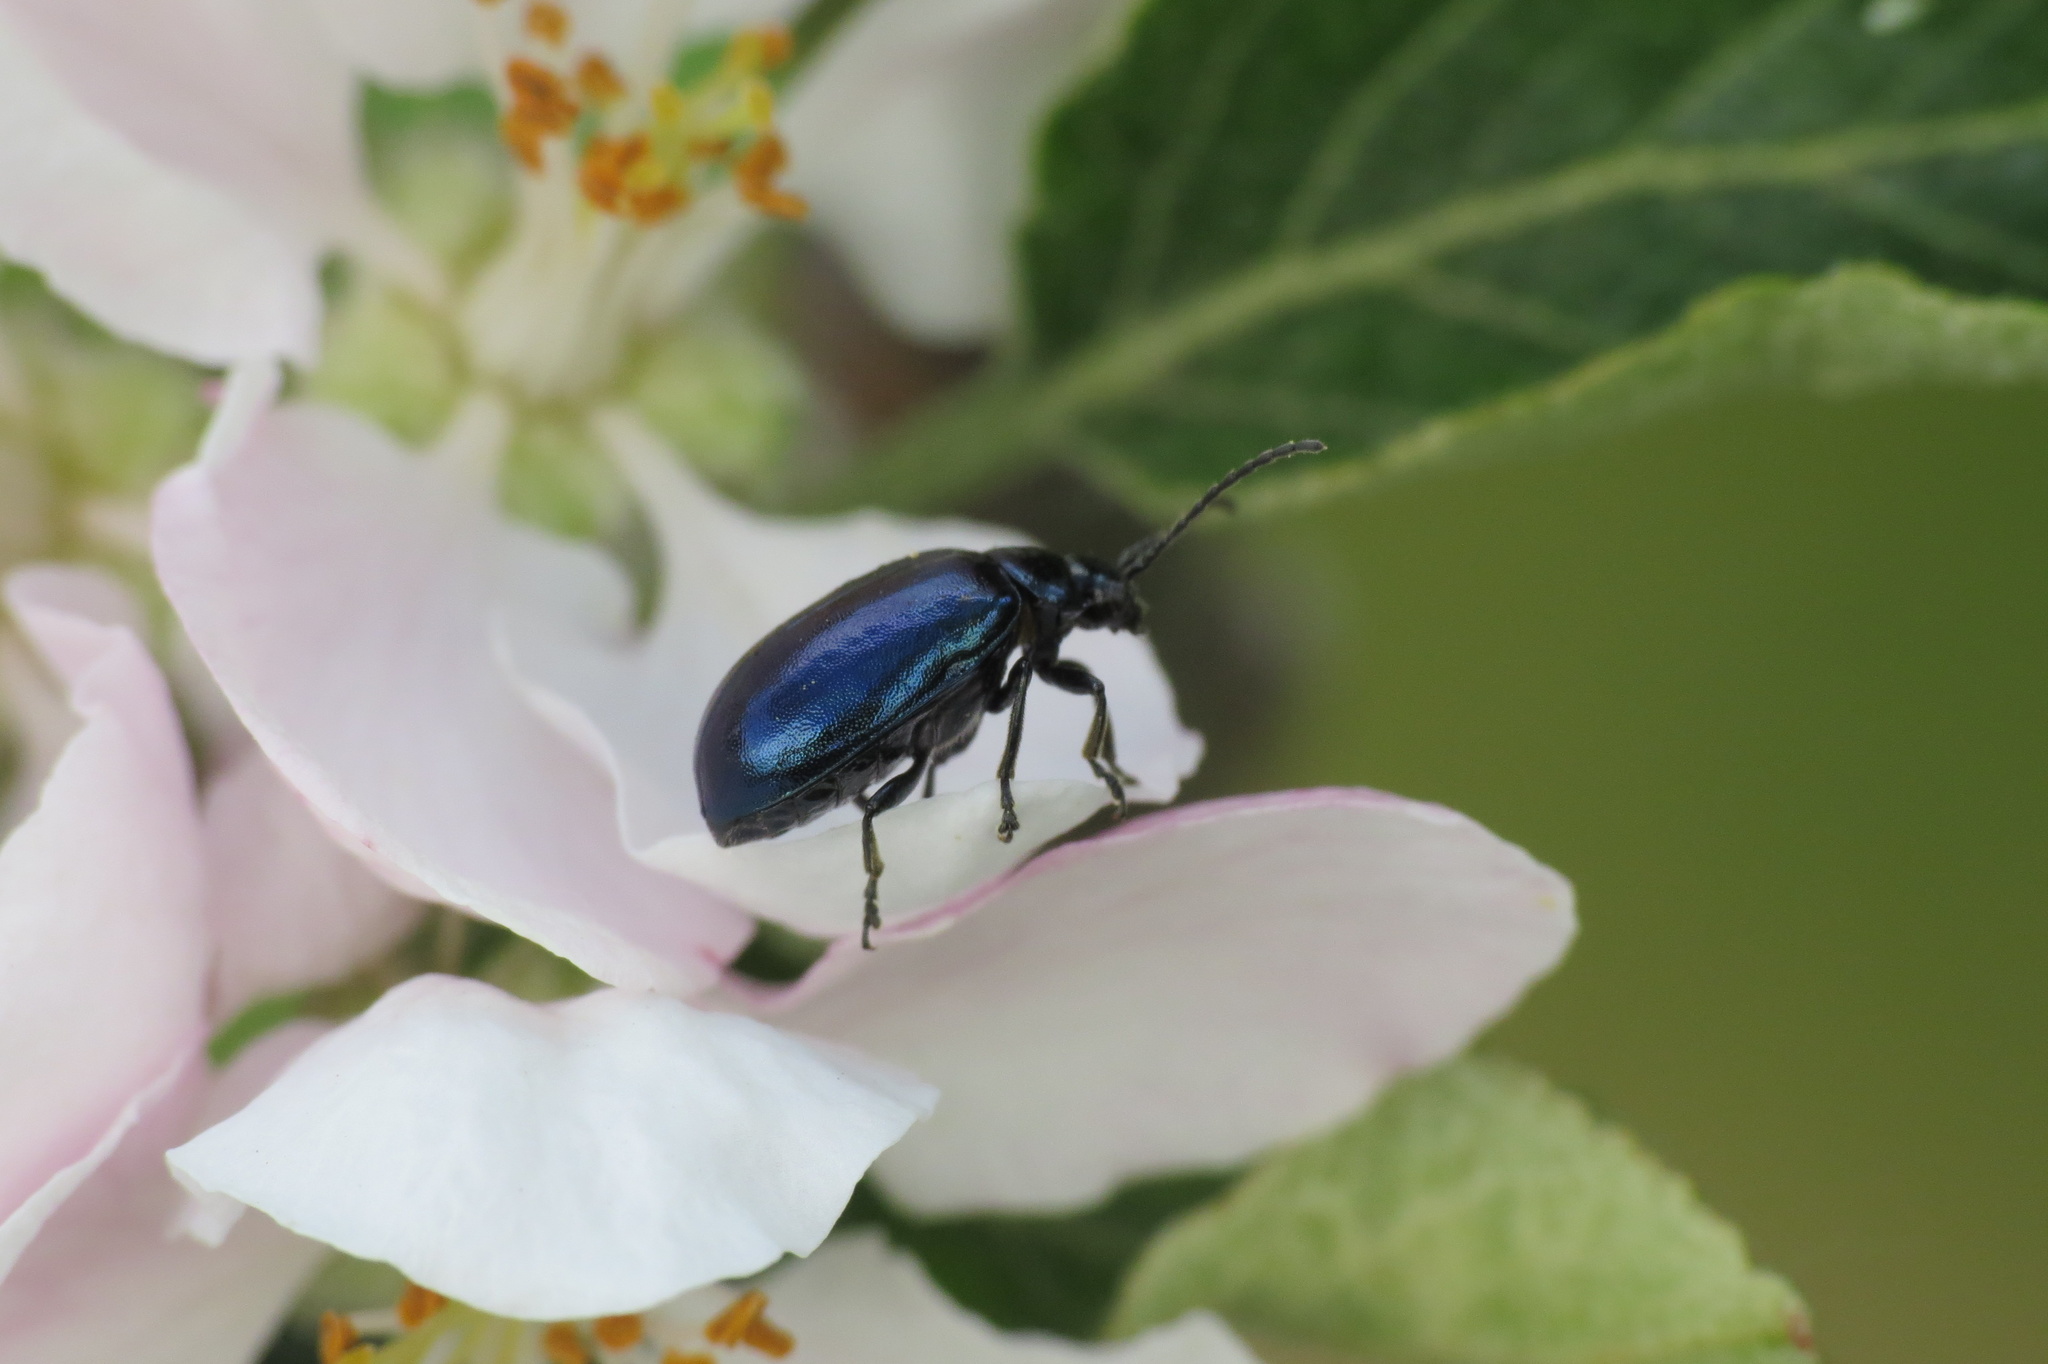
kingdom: Animalia
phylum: Arthropoda
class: Insecta
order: Coleoptera
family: Chrysomelidae
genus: Agelastica
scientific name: Agelastica alni
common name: Alder leaf beetle
